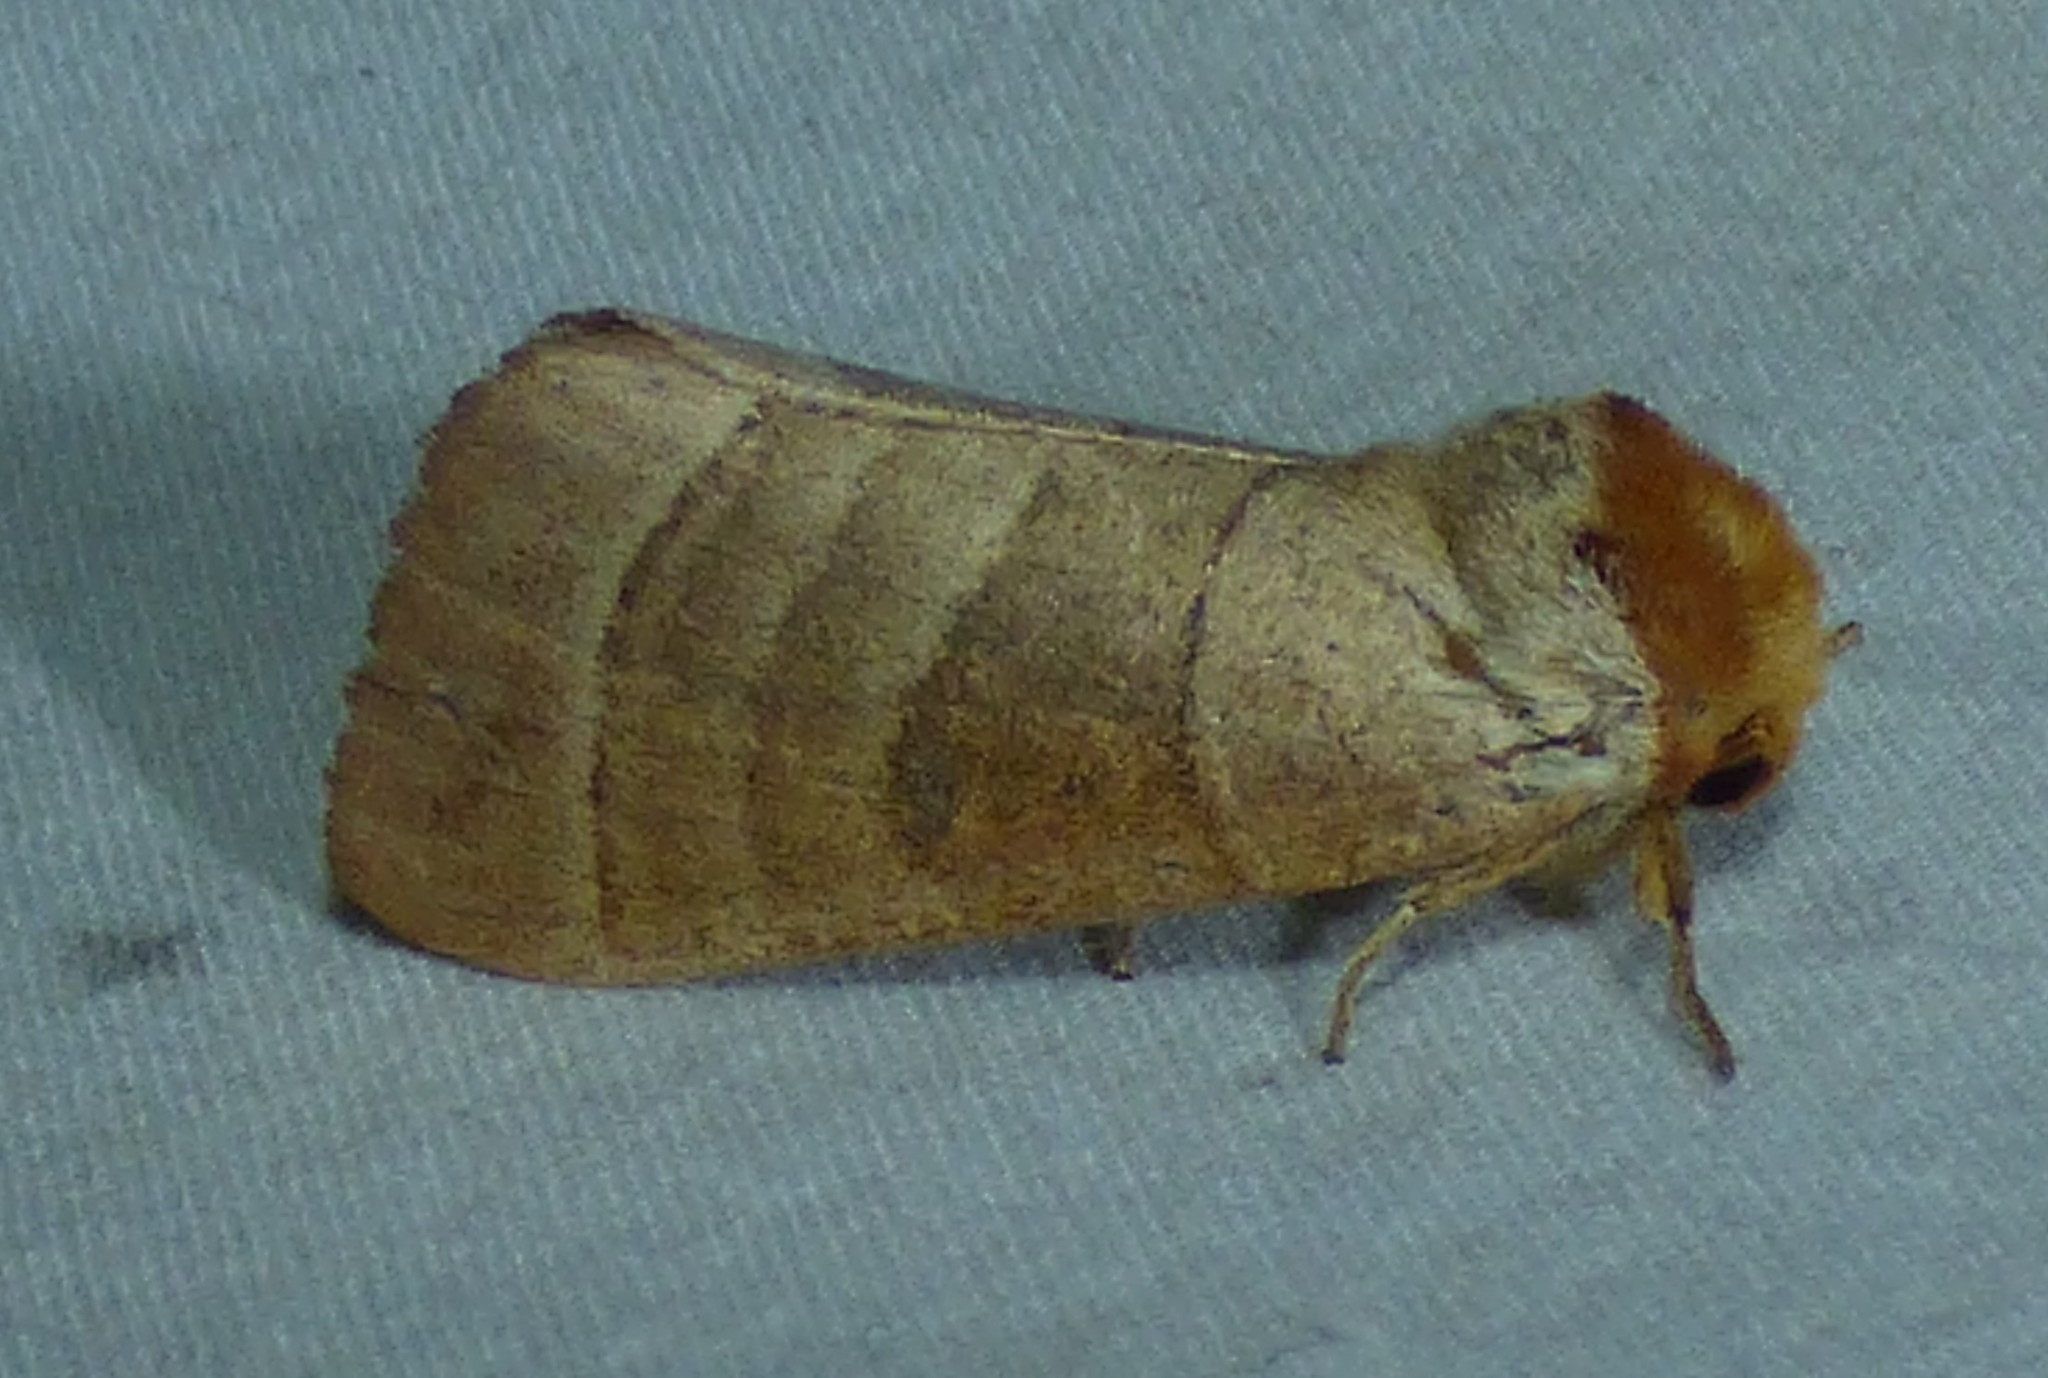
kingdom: Animalia
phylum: Arthropoda
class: Insecta
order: Lepidoptera
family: Notodontidae
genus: Datana
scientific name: Datana integerrima
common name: Walnut caterpillar
